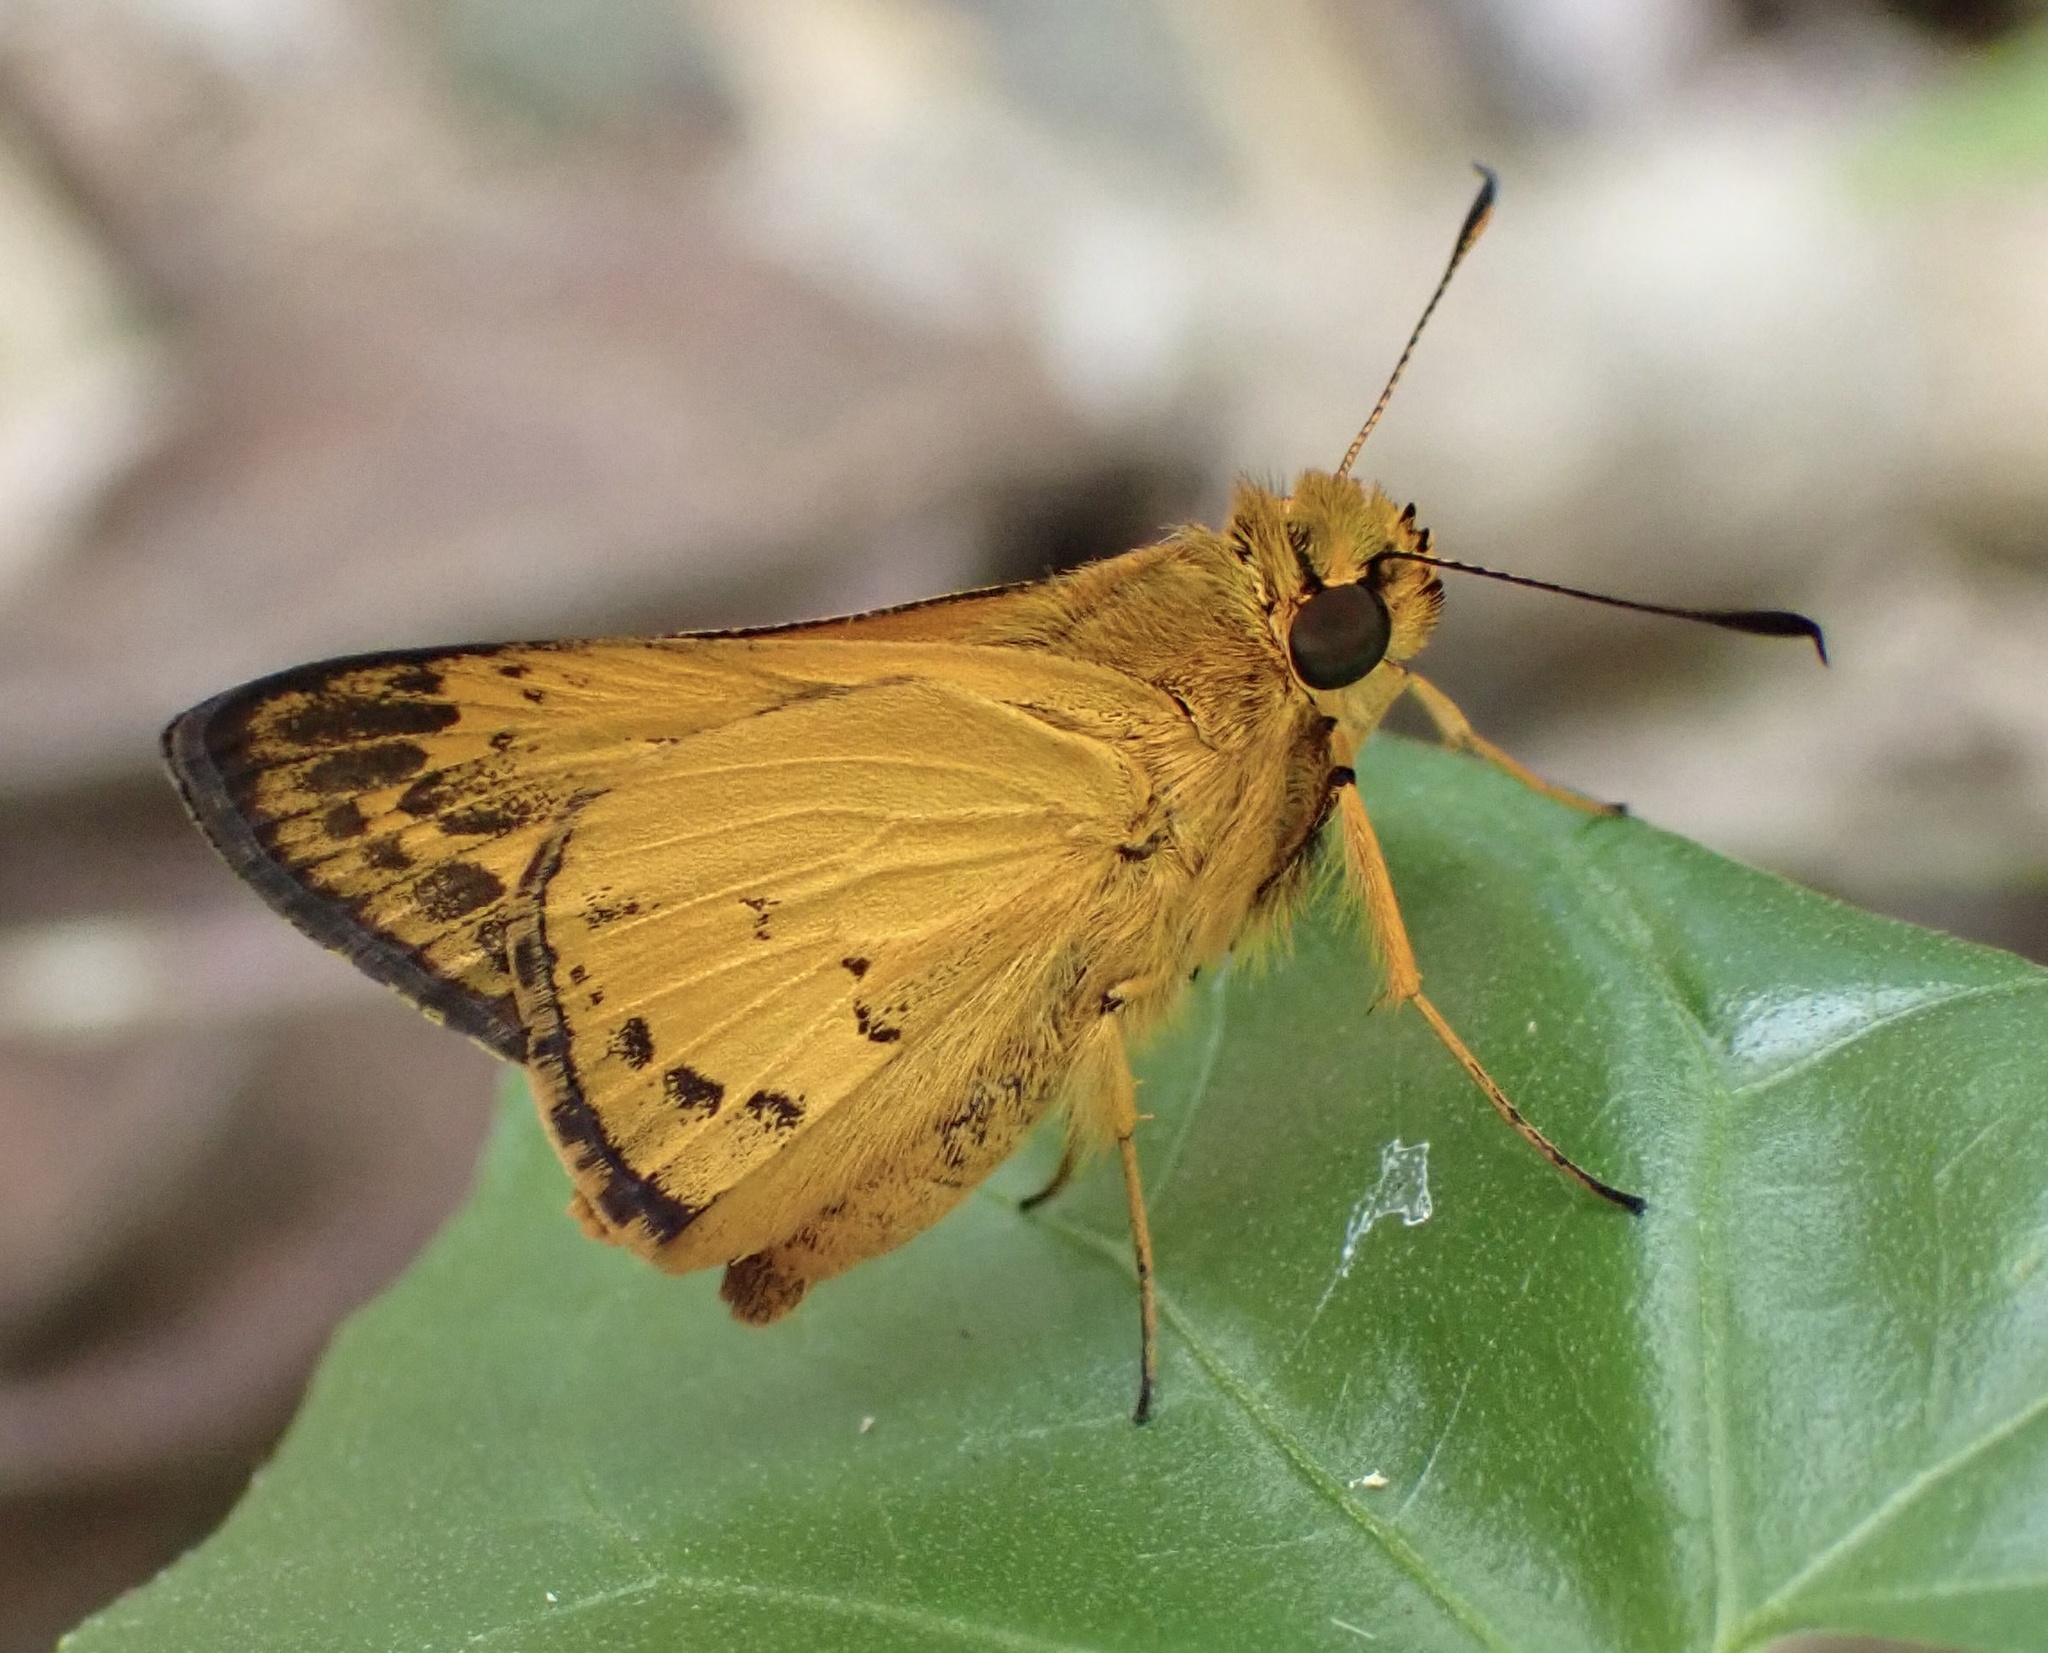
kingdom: Animalia
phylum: Arthropoda
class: Insecta
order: Lepidoptera
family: Hesperiidae
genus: Telicota
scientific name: Telicota melanion
